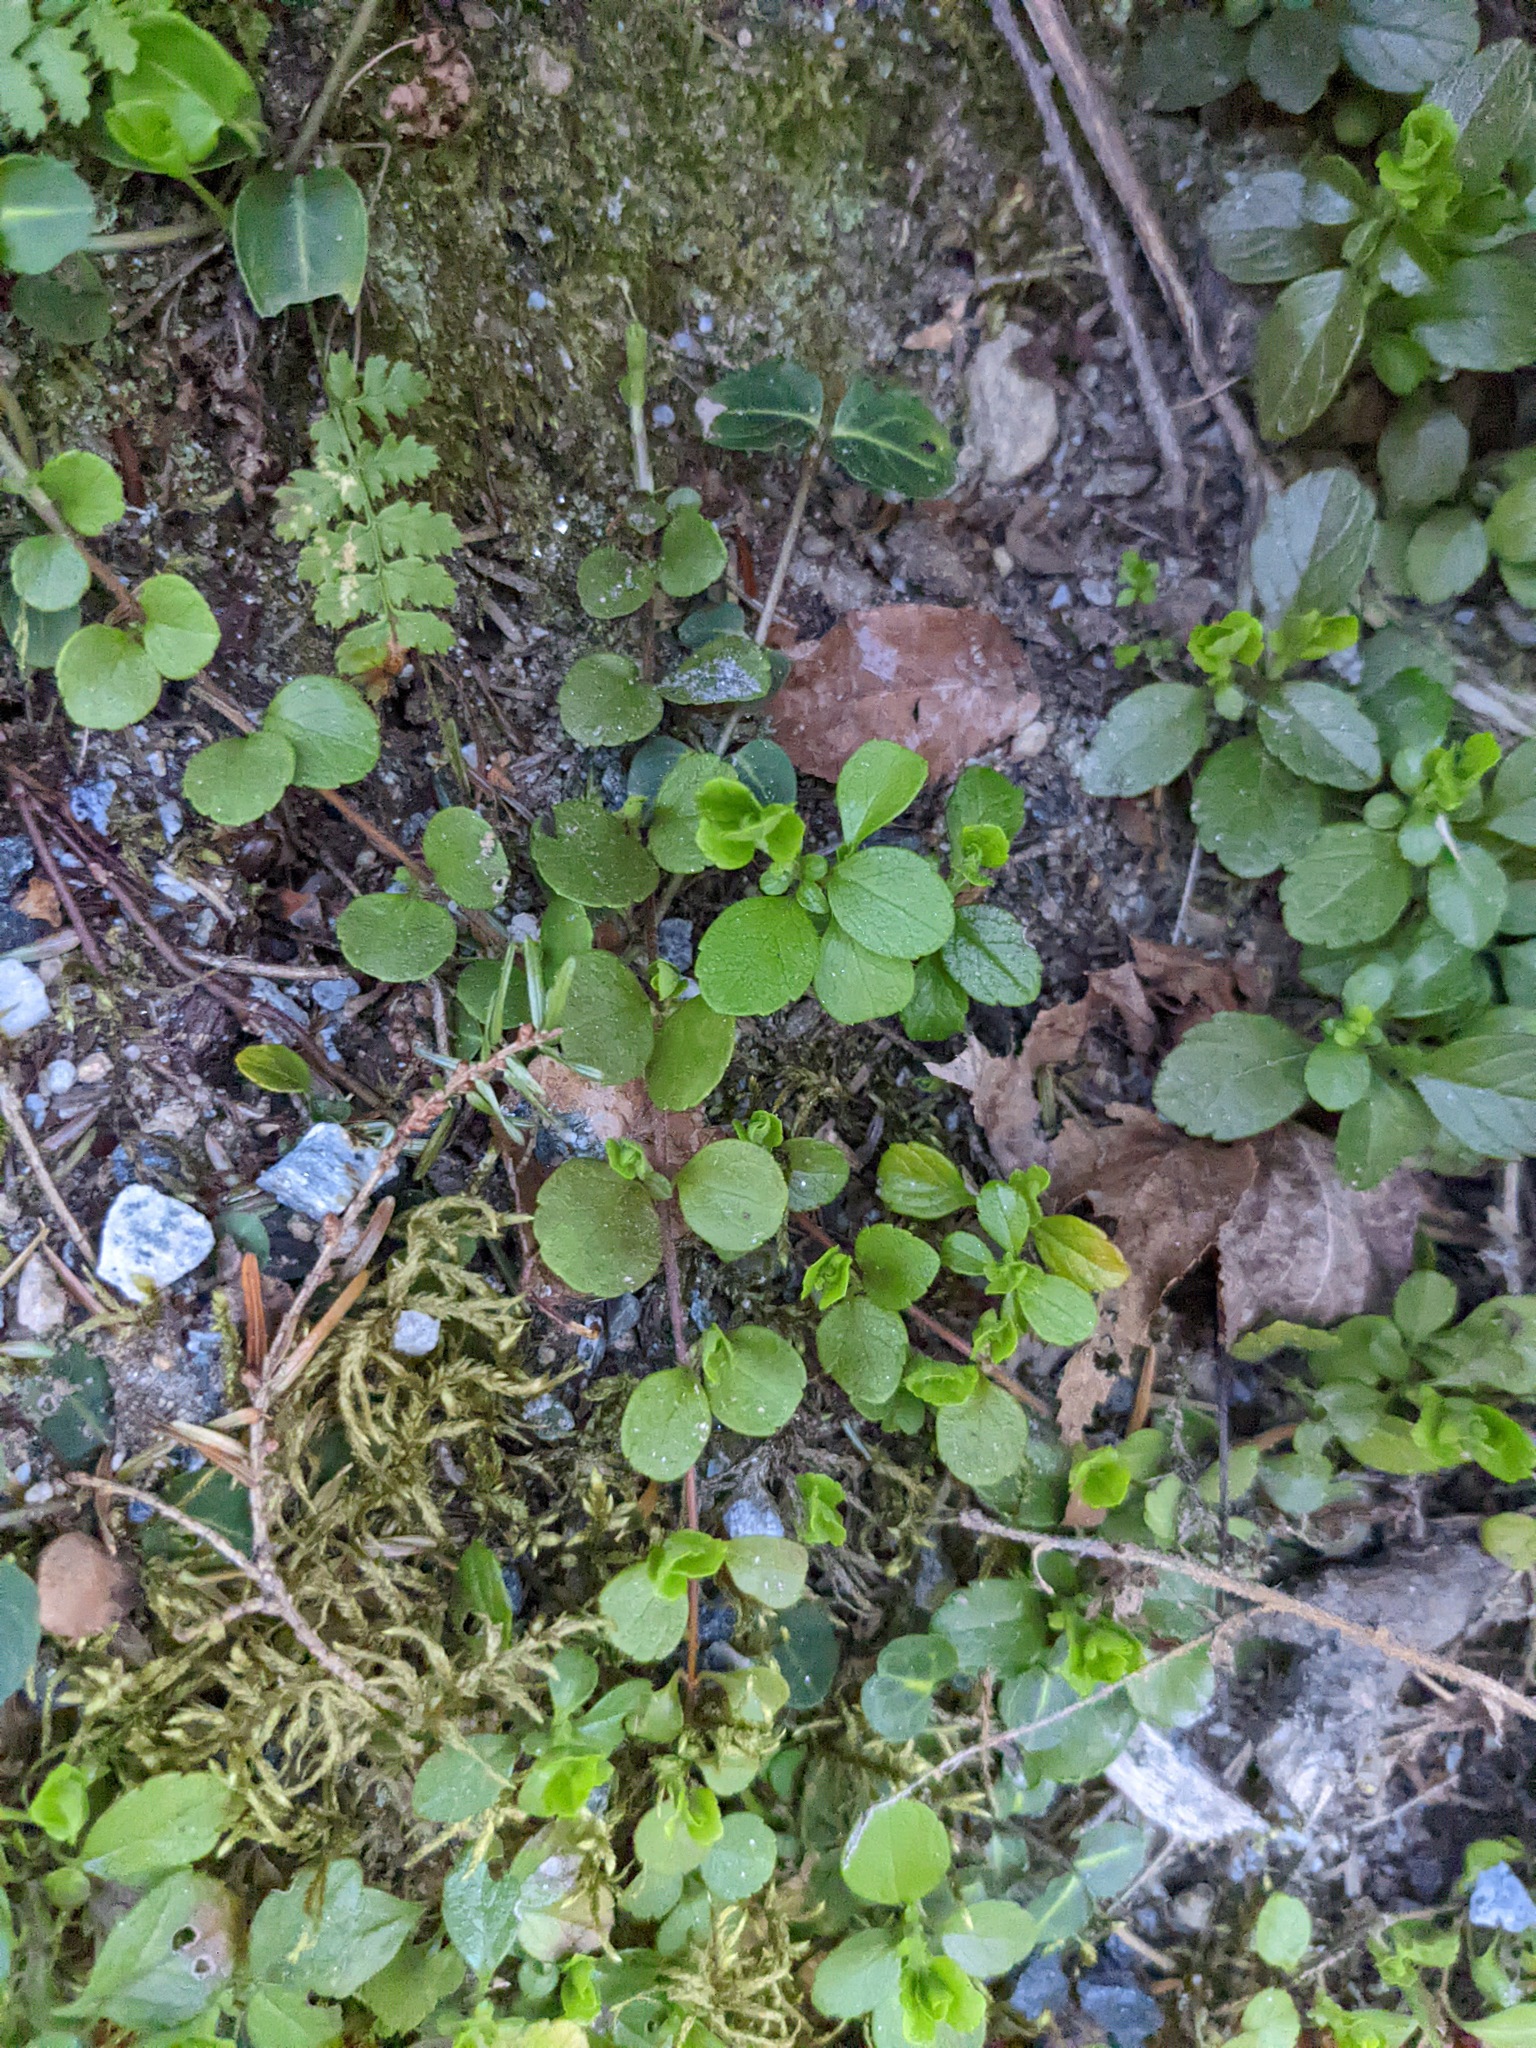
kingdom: Plantae
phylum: Tracheophyta
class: Magnoliopsida
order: Dipsacales
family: Caprifoliaceae
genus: Linnaea
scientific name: Linnaea borealis
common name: Twinflower
